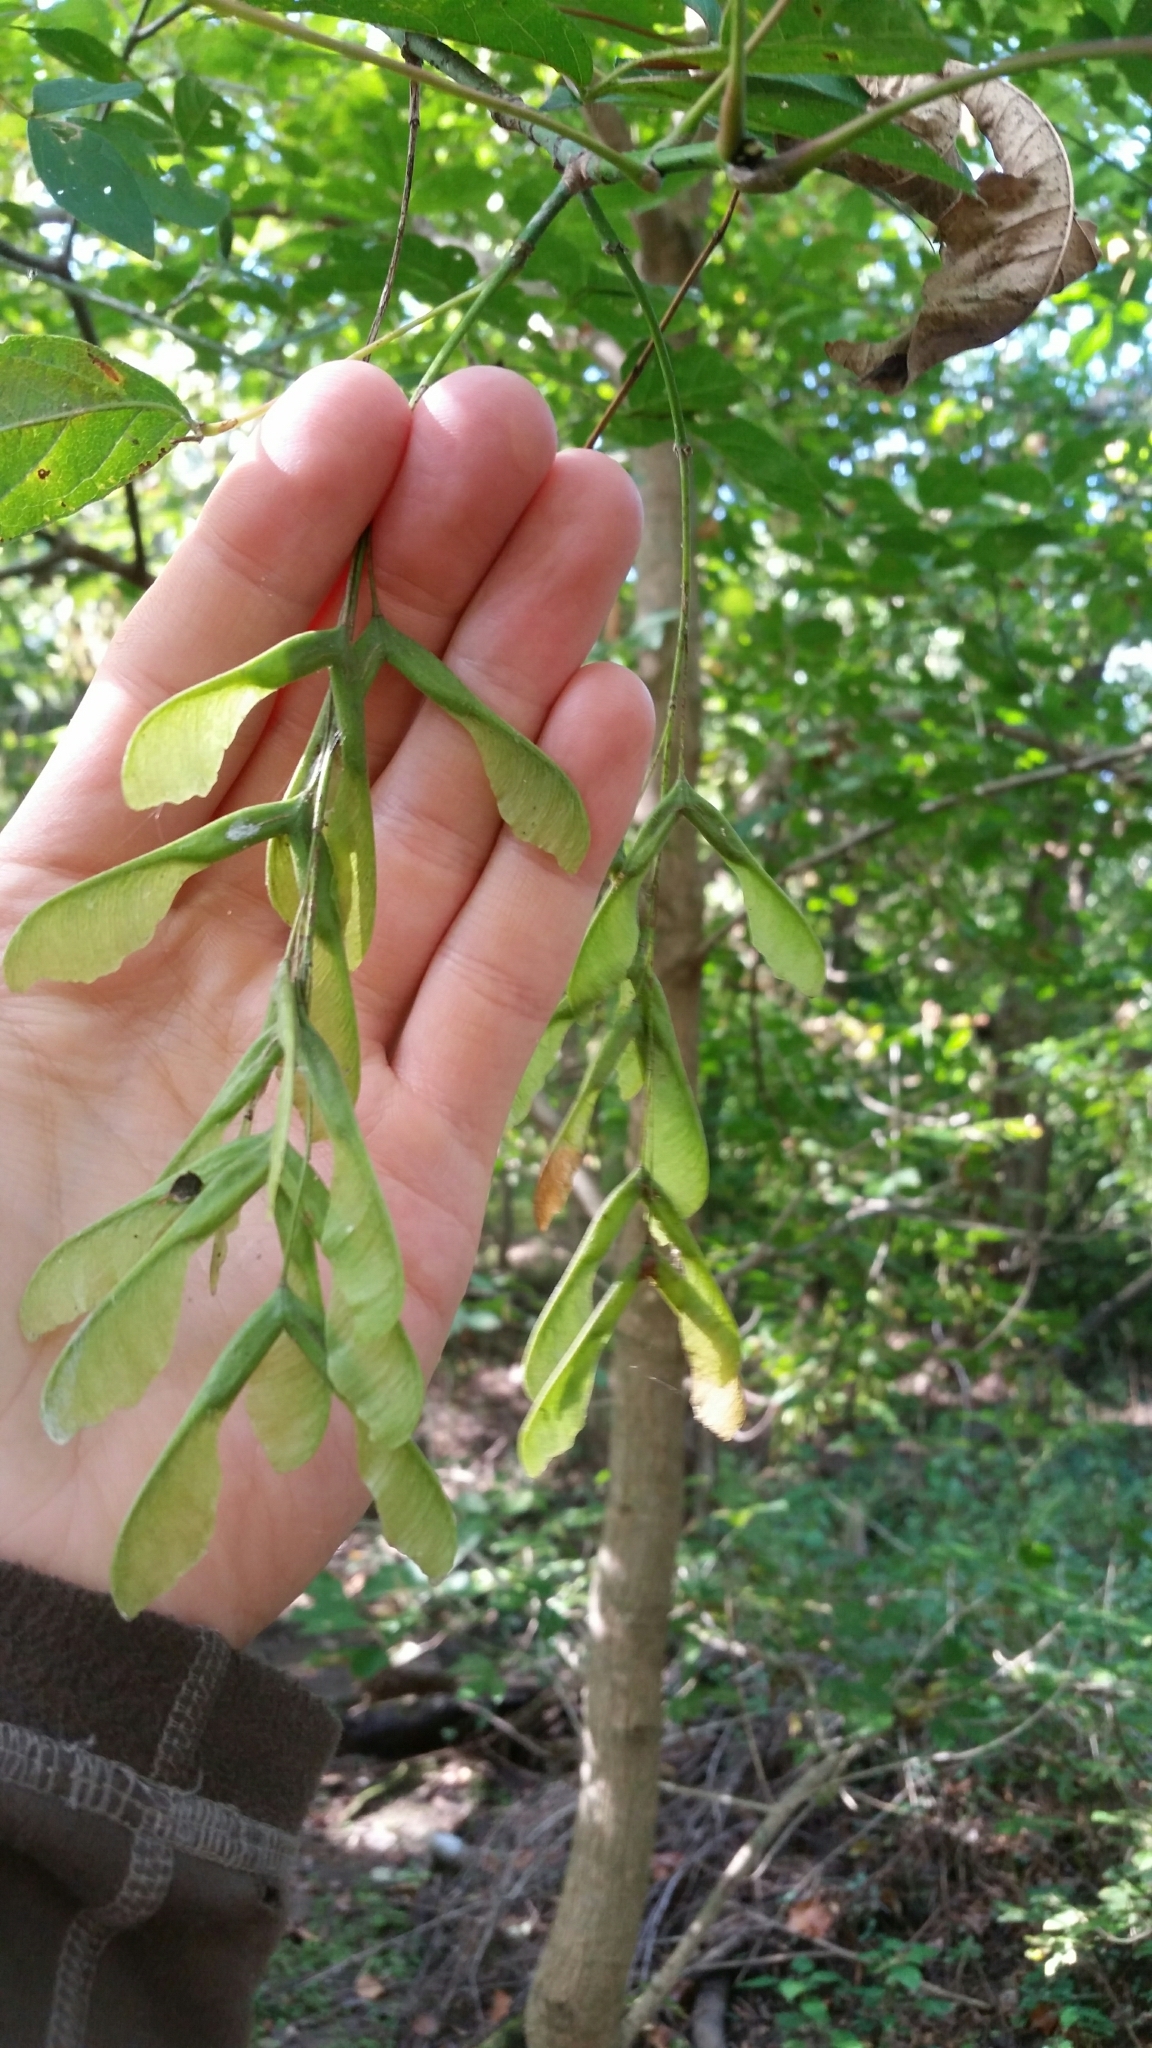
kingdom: Plantae
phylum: Tracheophyta
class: Magnoliopsida
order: Sapindales
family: Sapindaceae
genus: Acer
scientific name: Acer negundo
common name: Ashleaf maple
